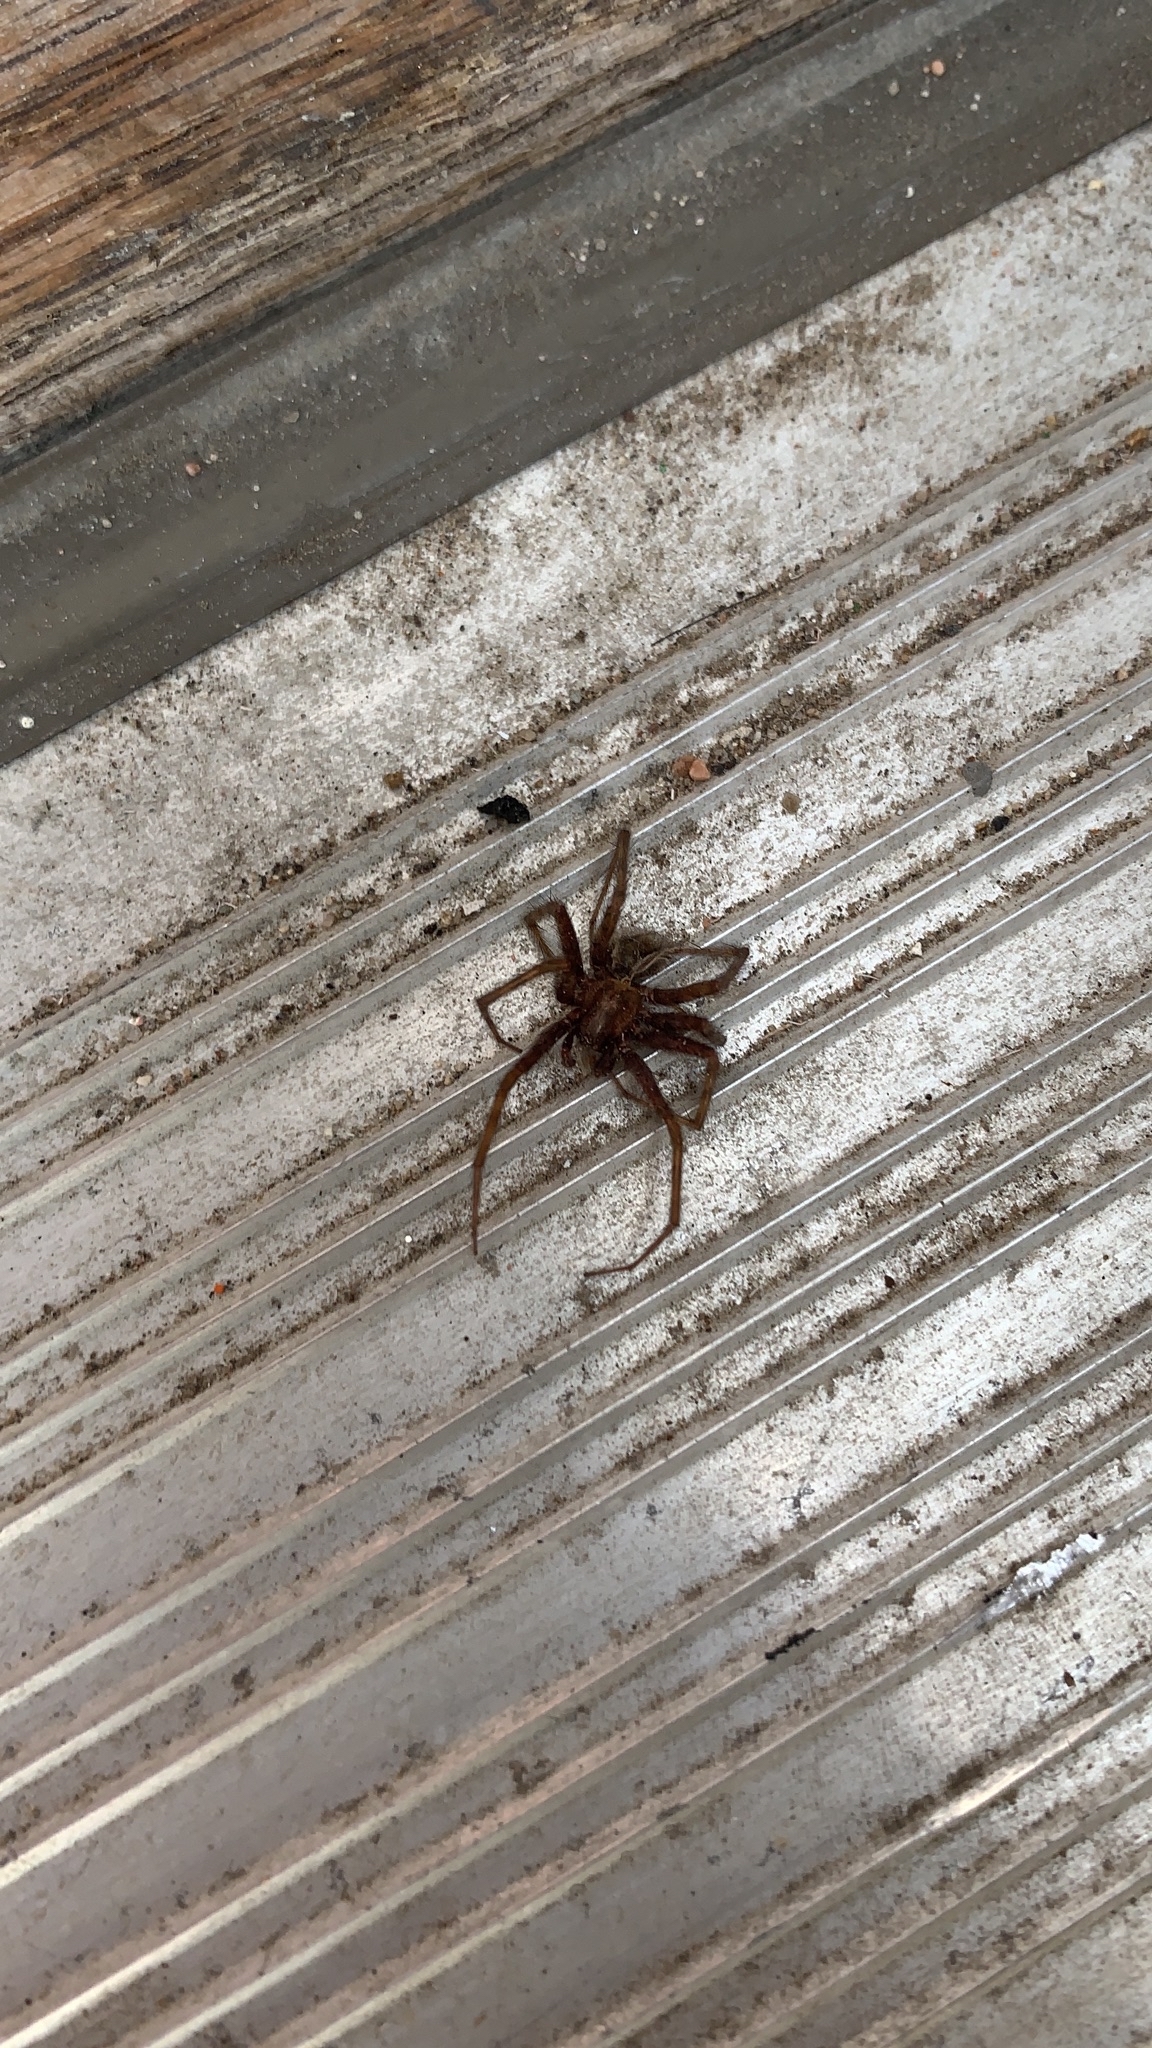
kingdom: Animalia
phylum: Arthropoda
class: Arachnida
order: Araneae
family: Agelenidae
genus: Tegenaria
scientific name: Tegenaria domestica
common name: Barn funnel weaver
